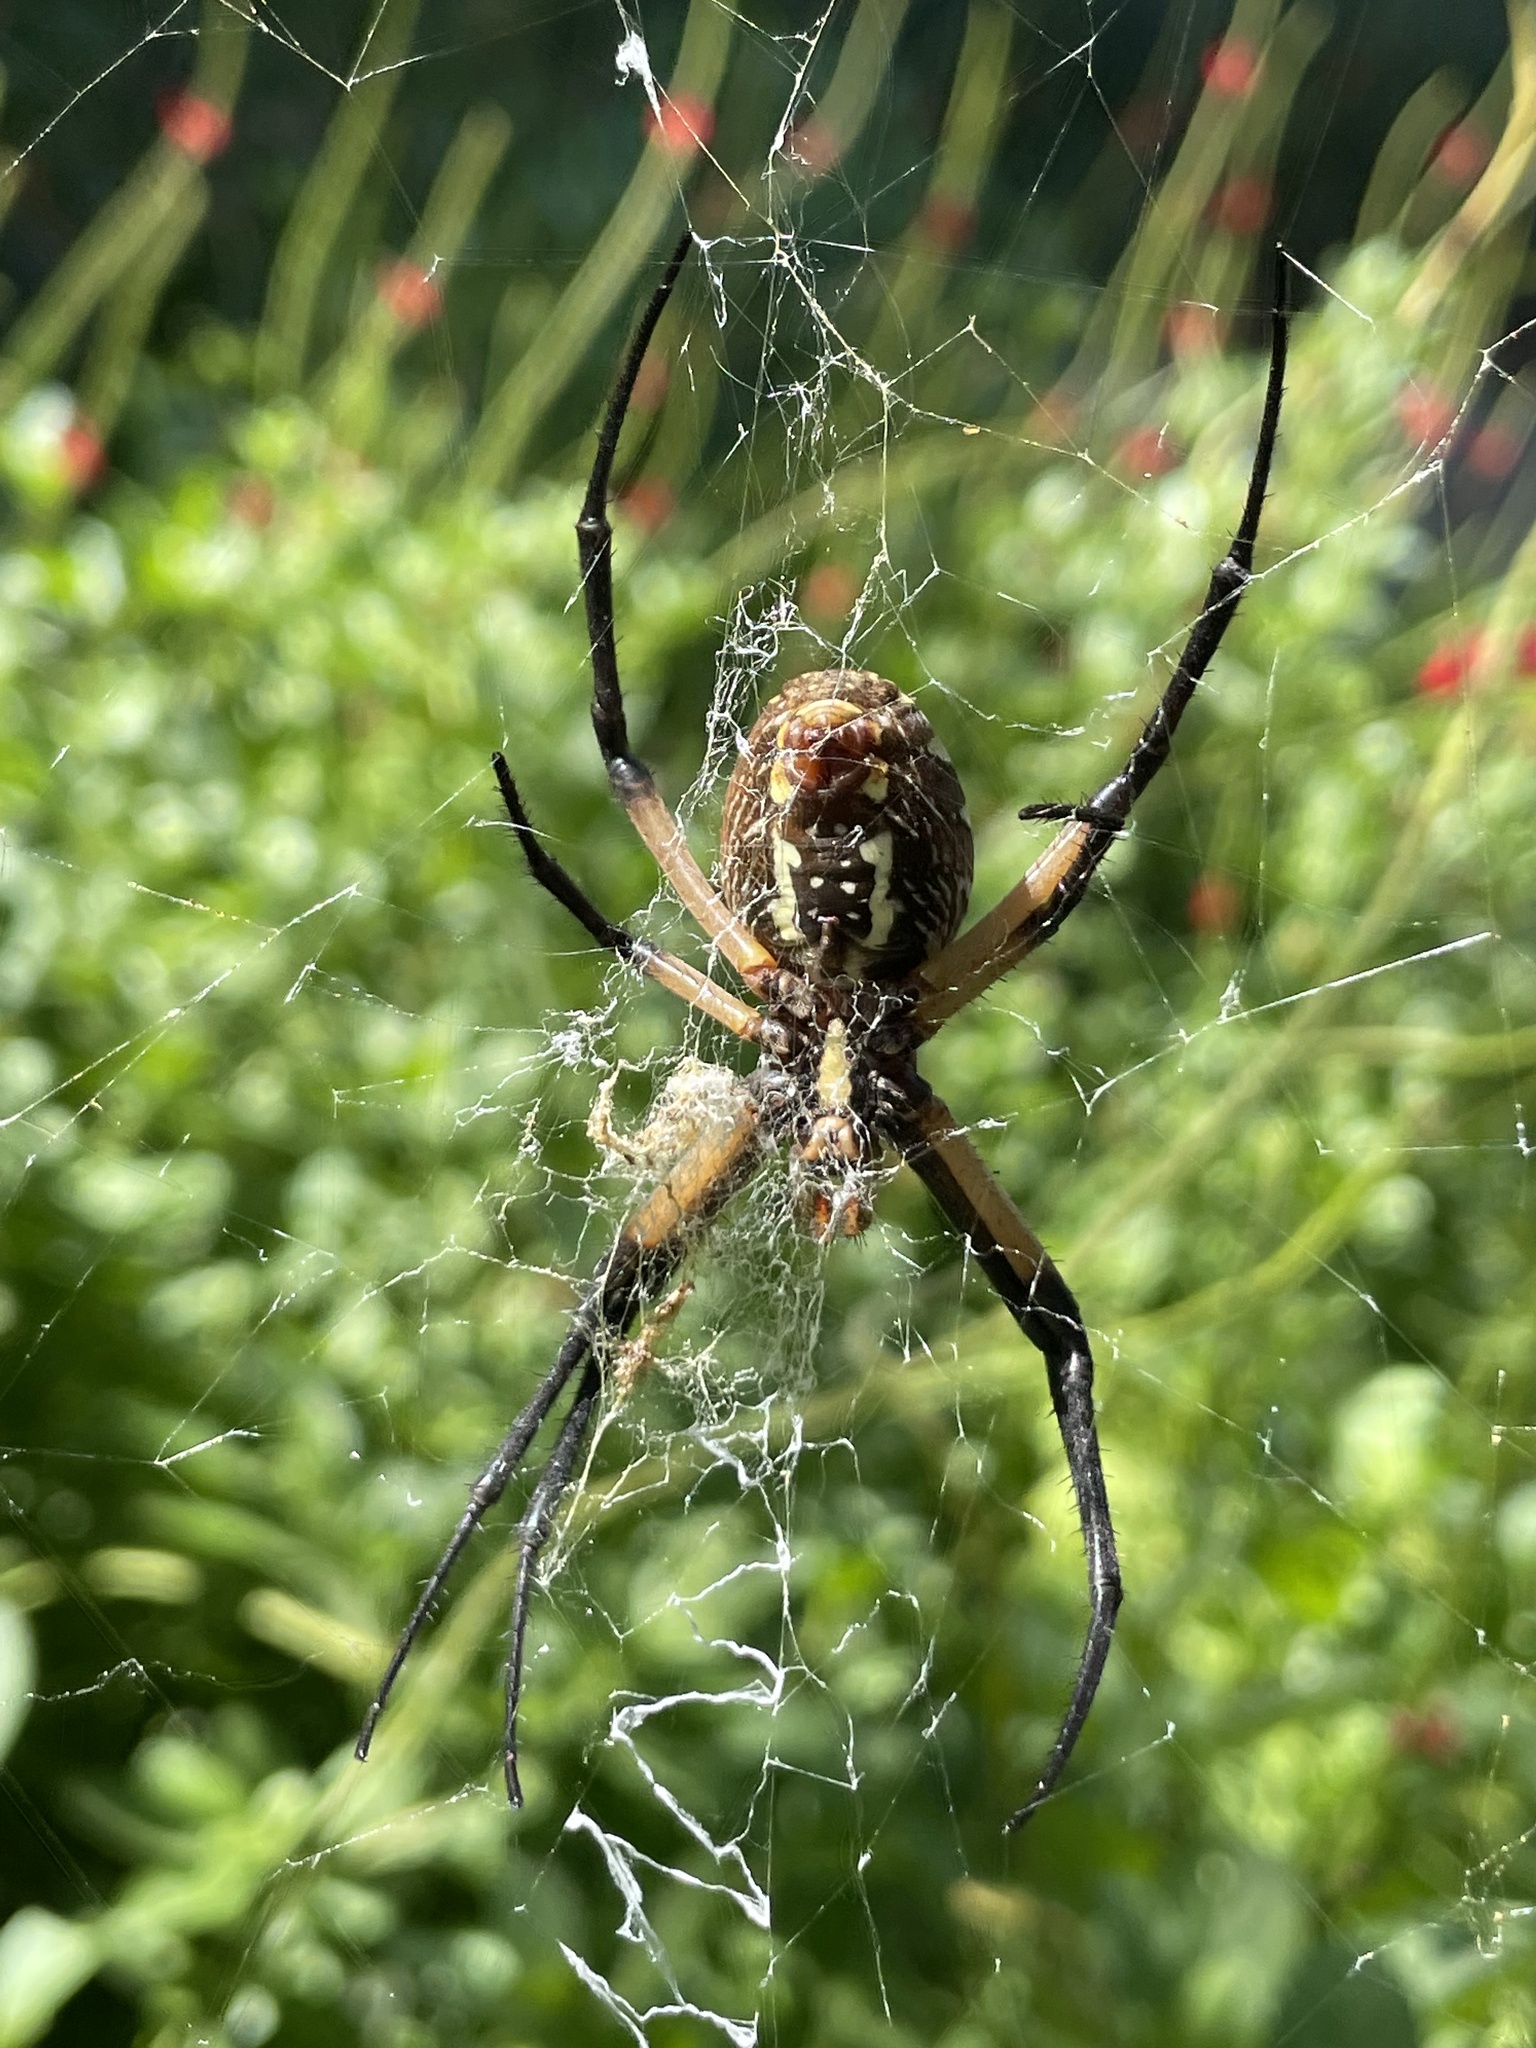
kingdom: Animalia
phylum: Arthropoda
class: Arachnida
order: Araneae
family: Araneidae
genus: Argiope
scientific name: Argiope aurantia
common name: Orb weavers
